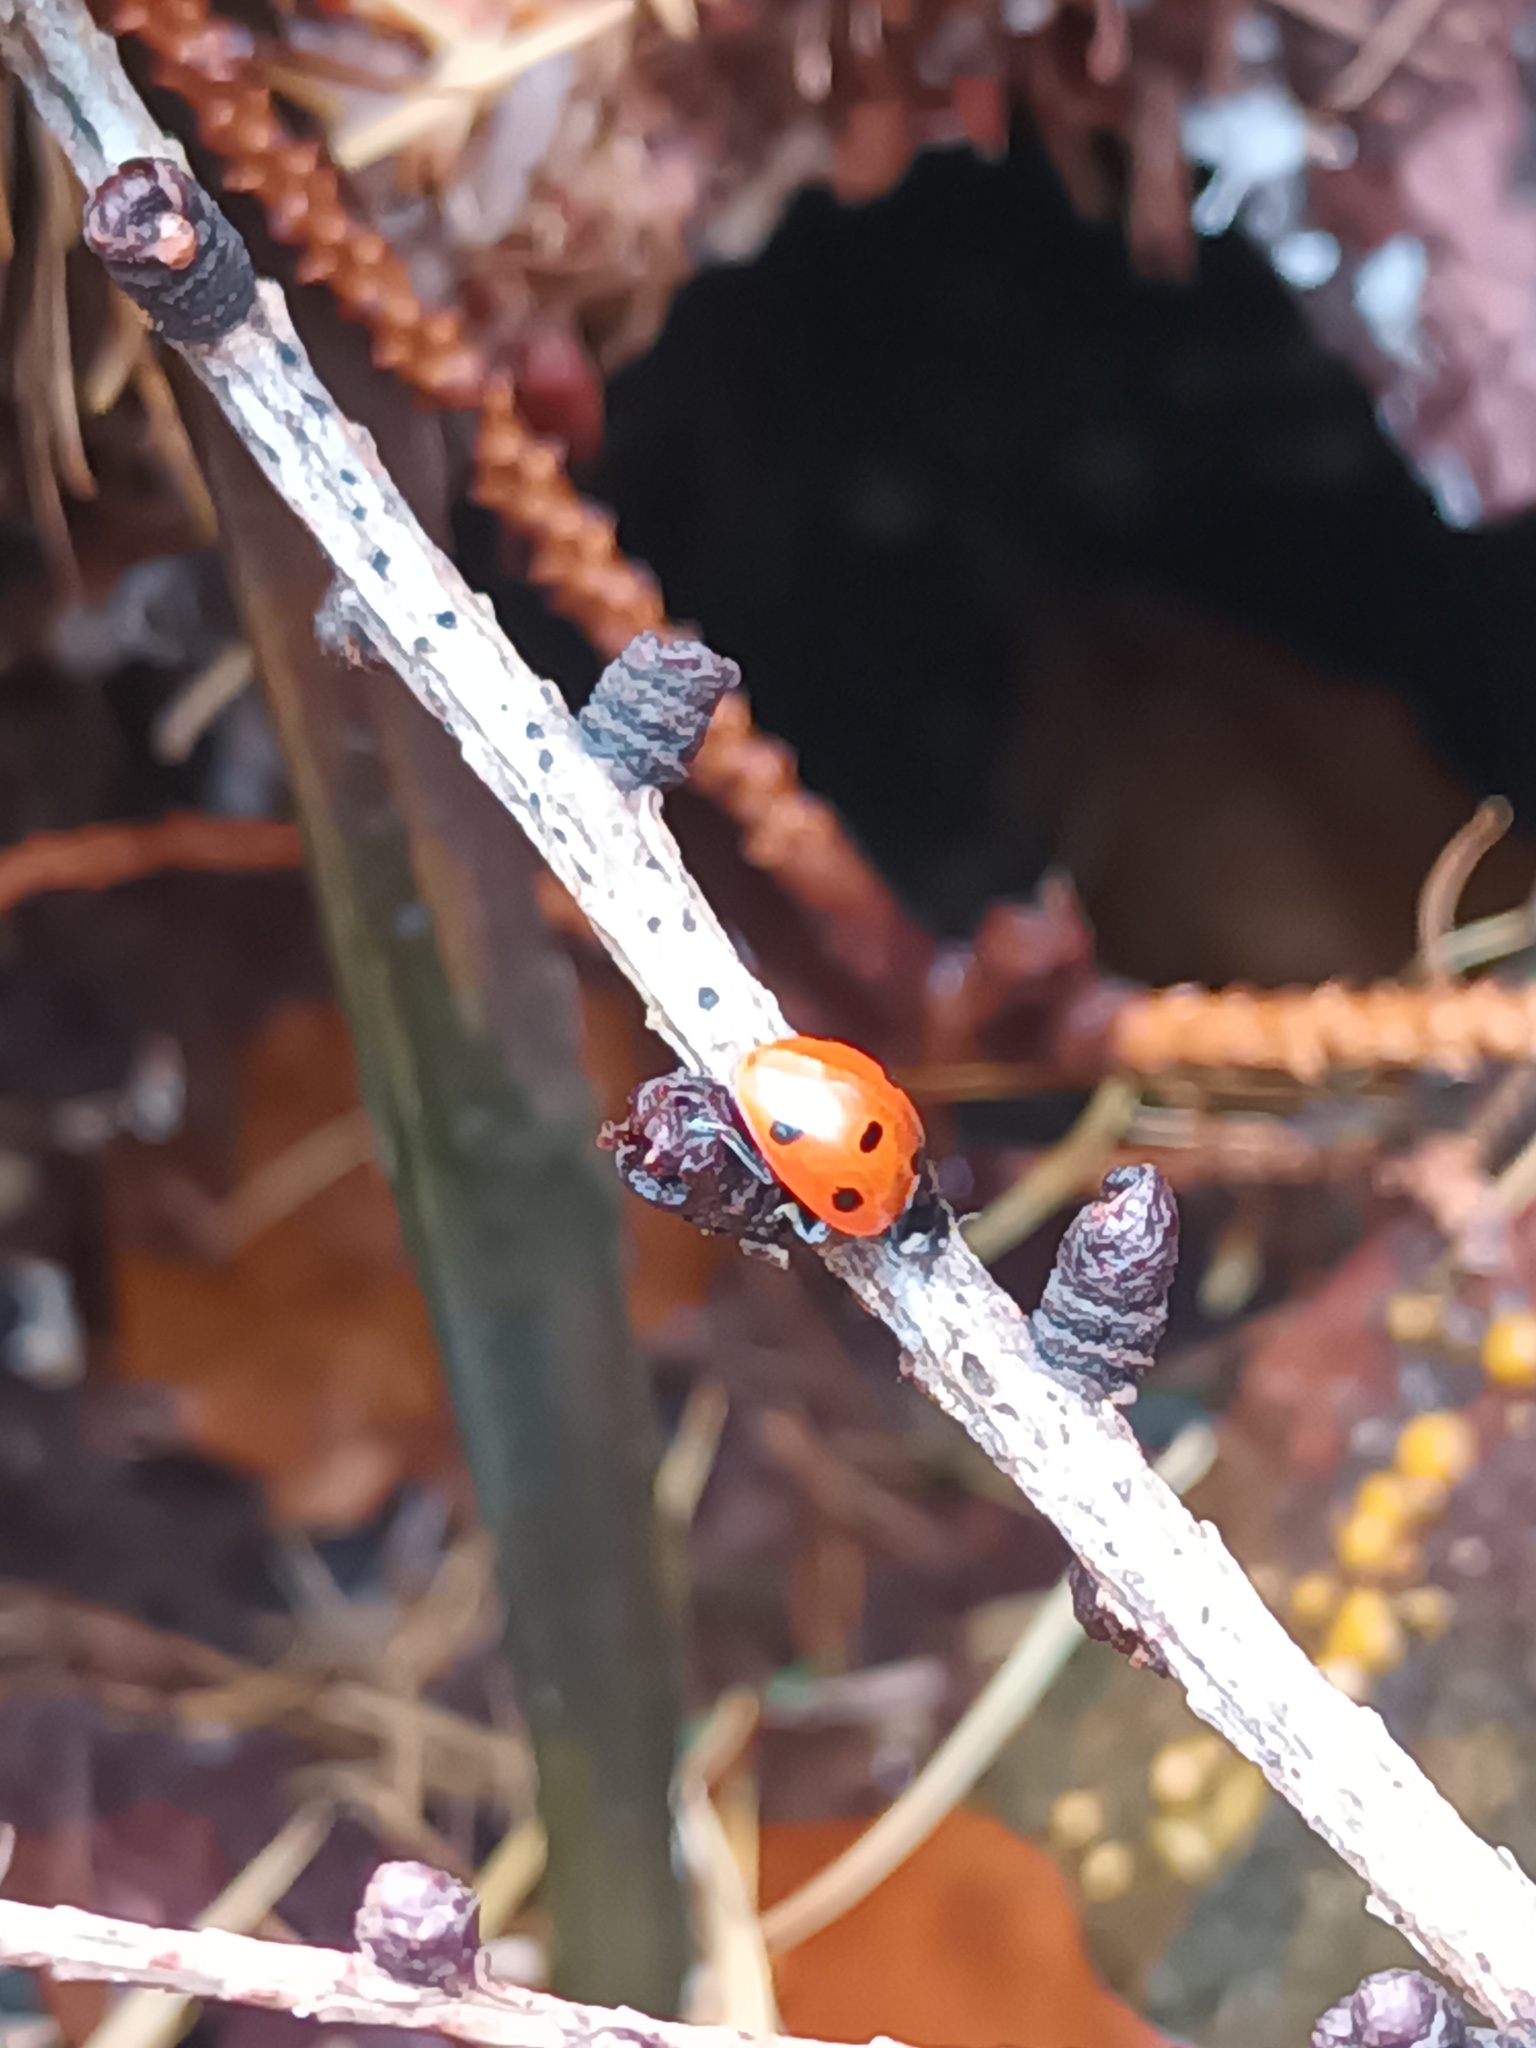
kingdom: Animalia
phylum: Arthropoda
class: Insecta
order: Coleoptera
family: Coccinellidae
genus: Coccinella
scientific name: Coccinella septempunctata
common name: Sevenspotted lady beetle
